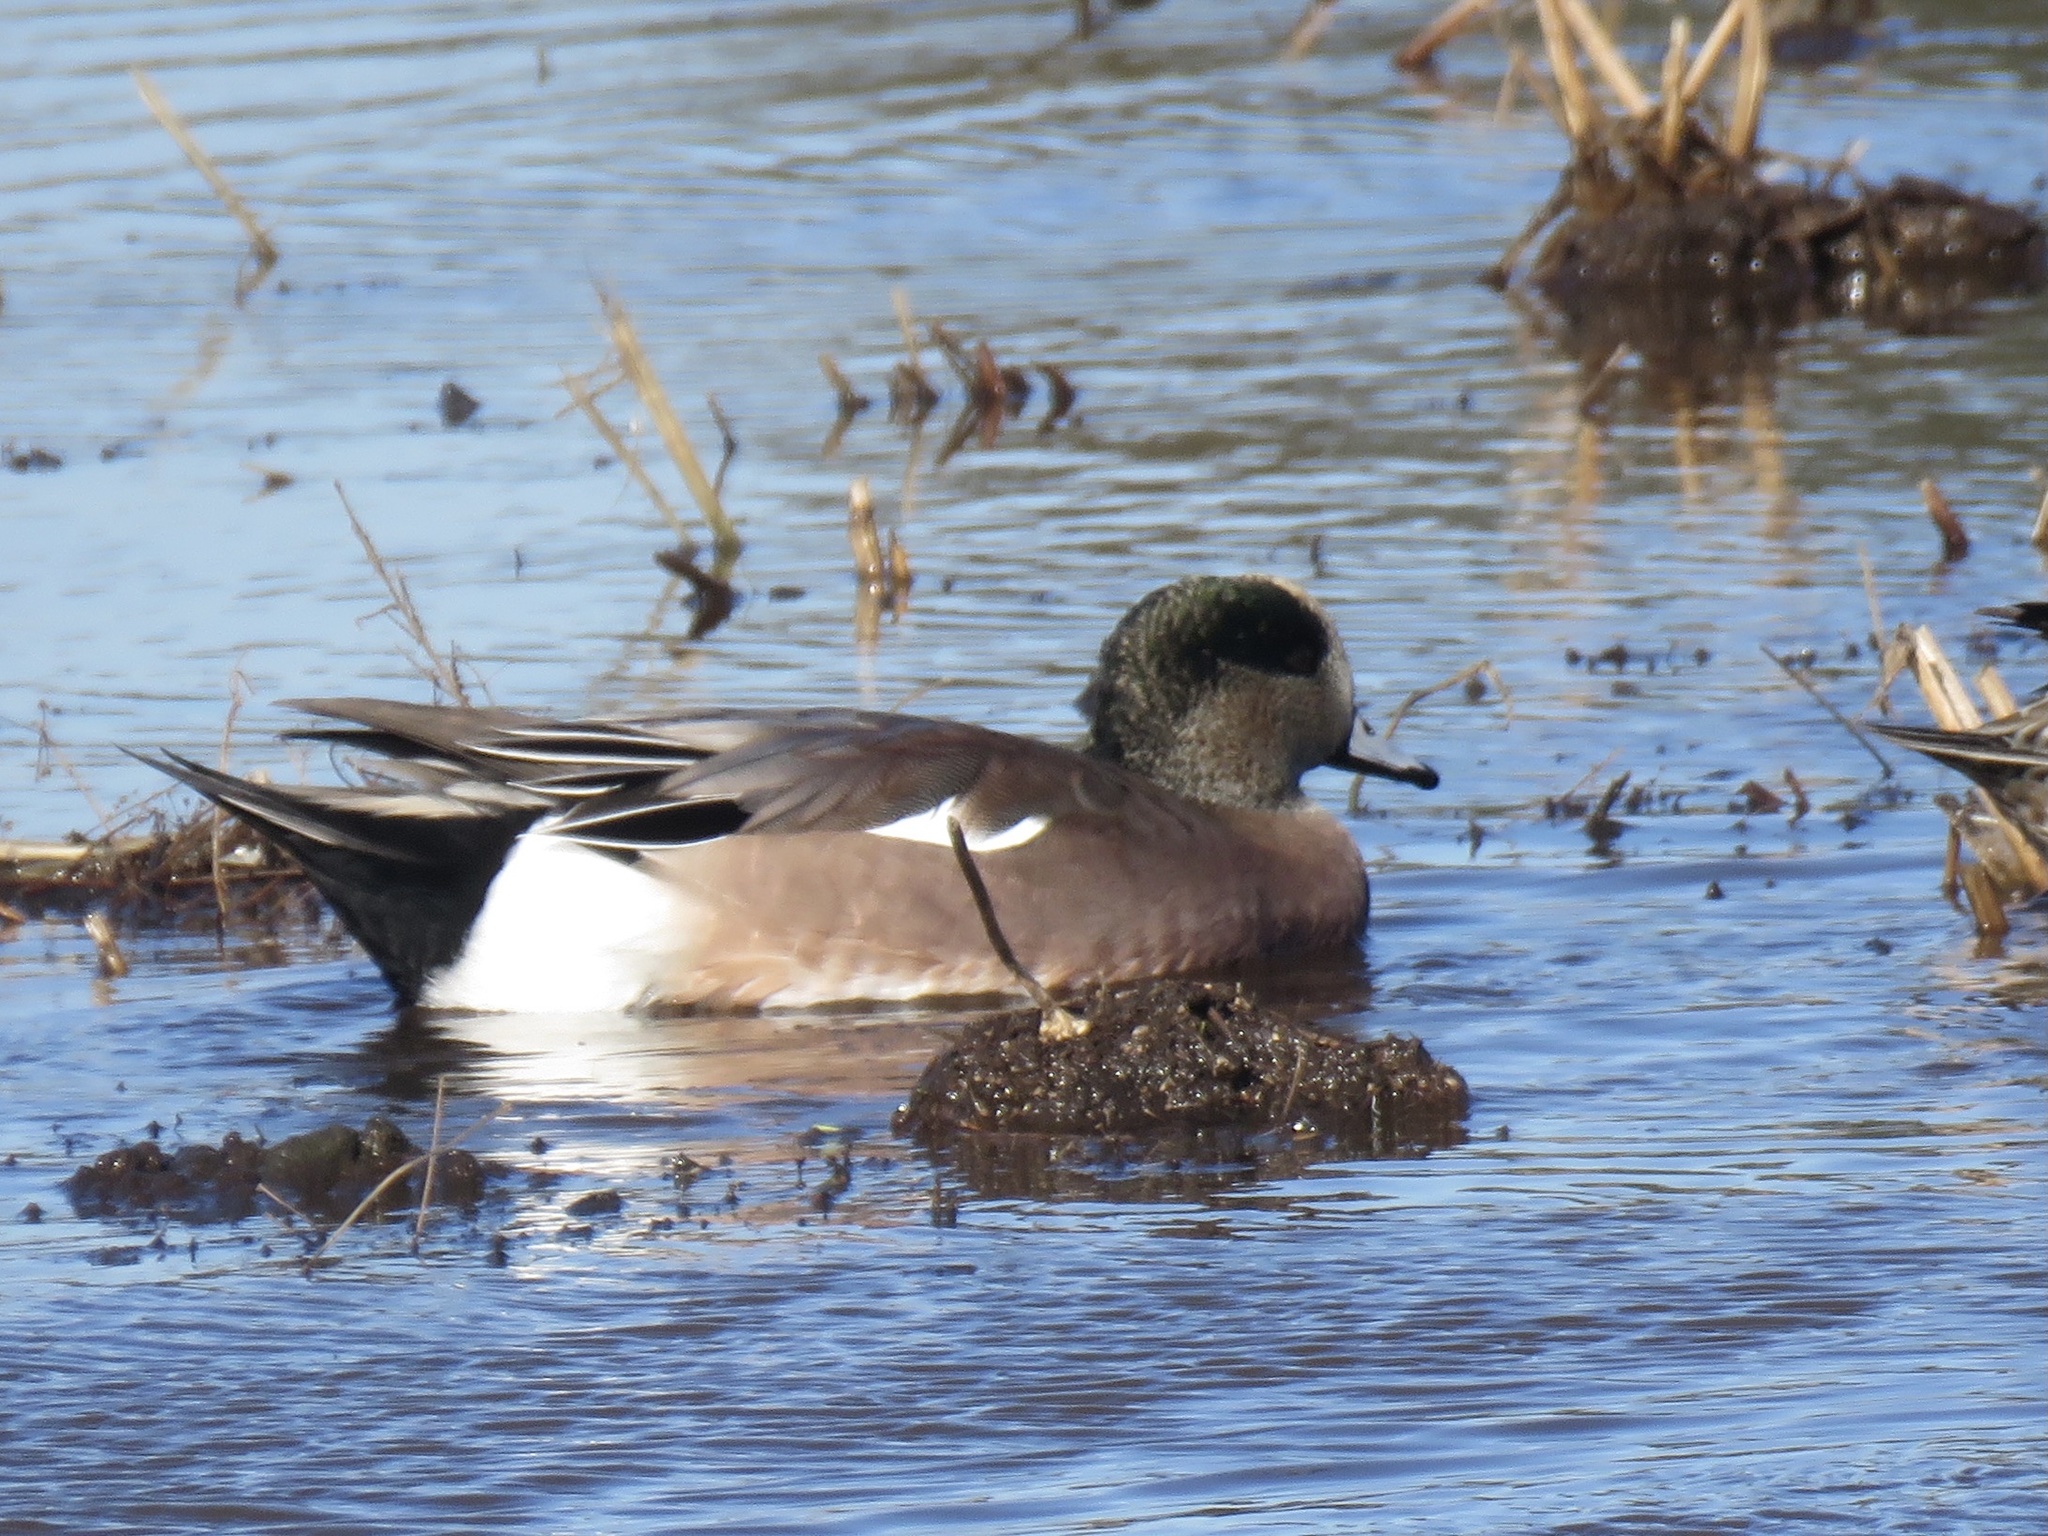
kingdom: Animalia
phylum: Chordata
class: Aves
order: Anseriformes
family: Anatidae
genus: Mareca
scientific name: Mareca americana
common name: American wigeon
